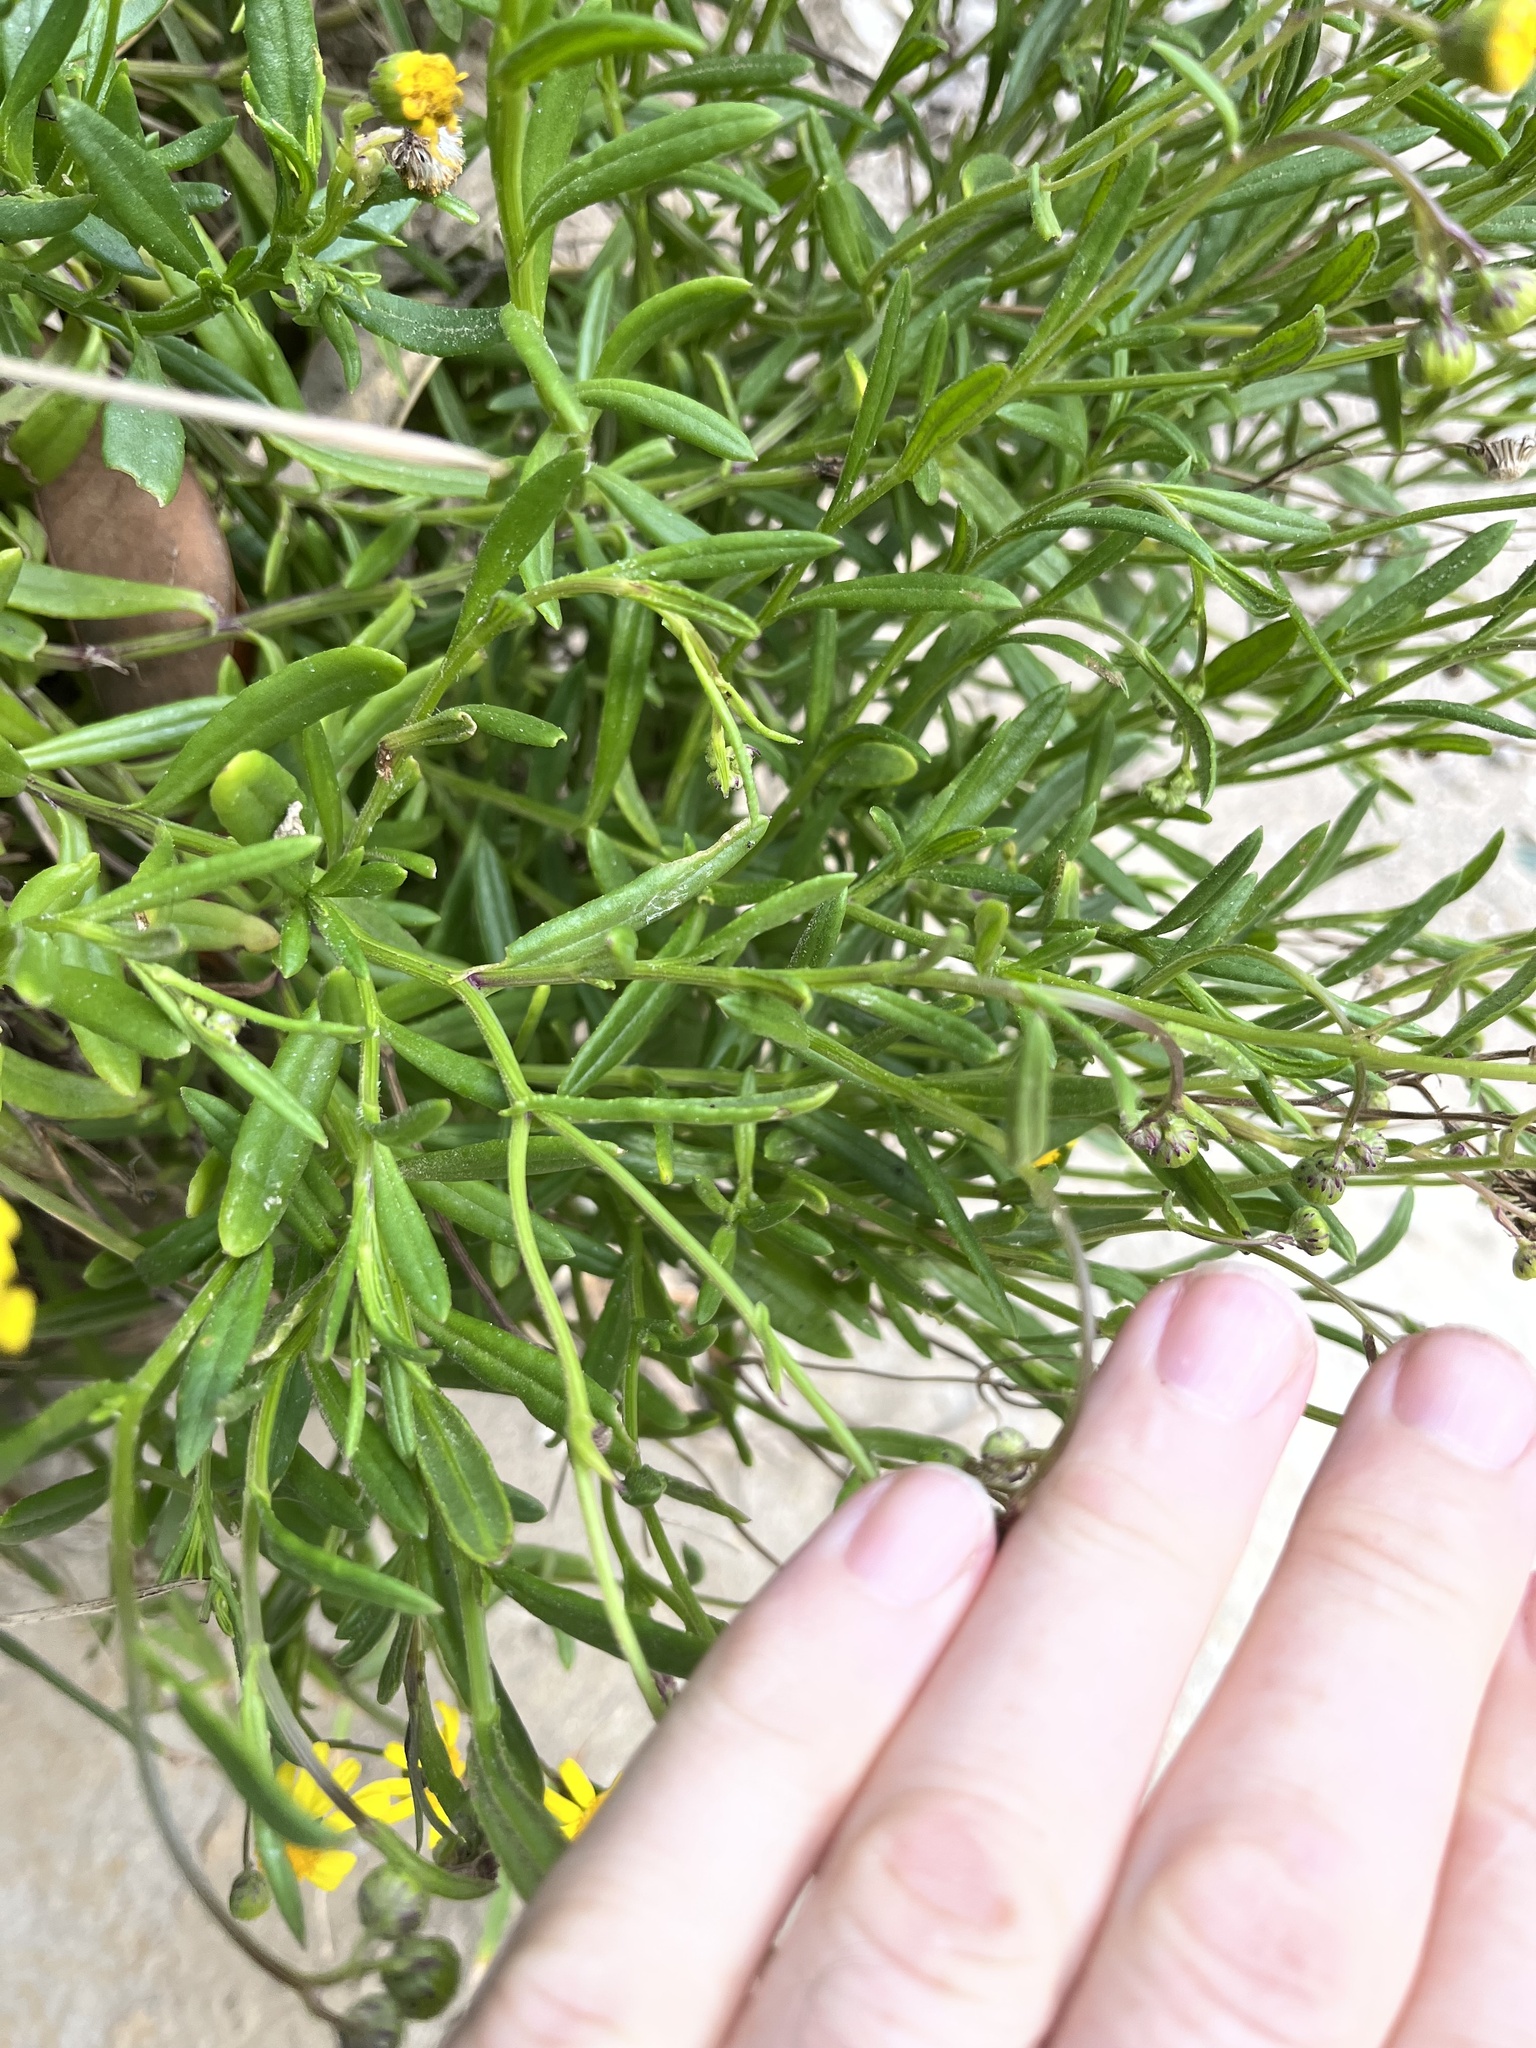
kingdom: Plantae
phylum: Tracheophyta
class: Magnoliopsida
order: Asterales
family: Asteraceae
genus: Senecio
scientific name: Senecio skirrhodon
